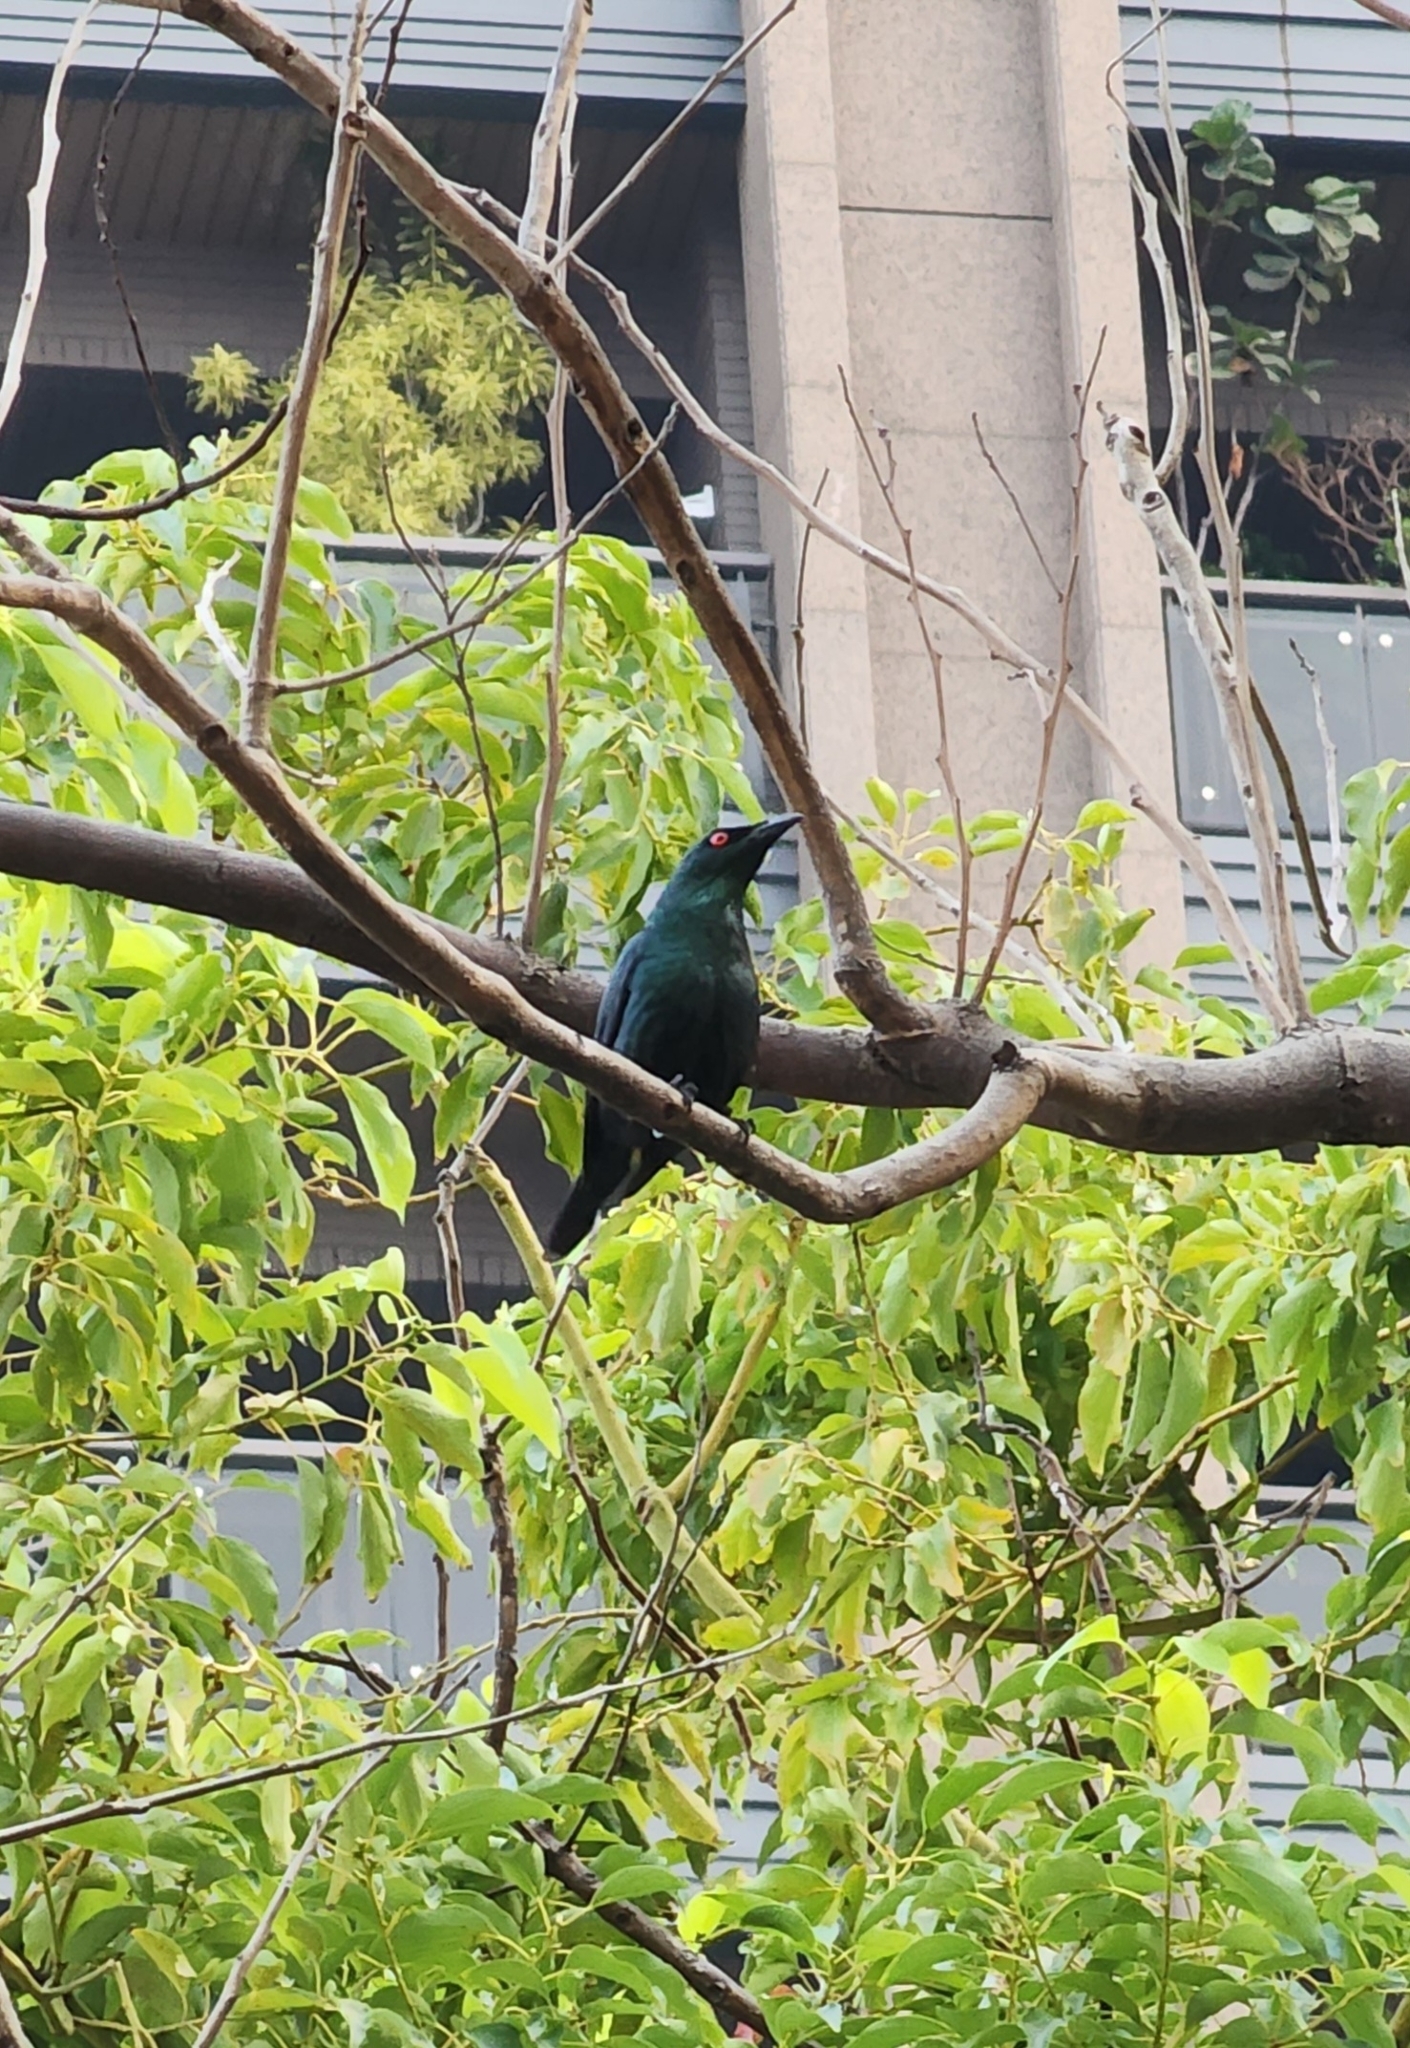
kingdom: Animalia
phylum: Chordata
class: Aves
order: Passeriformes
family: Sturnidae
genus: Aplonis
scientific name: Aplonis panayensis
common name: Asian glossy starling
